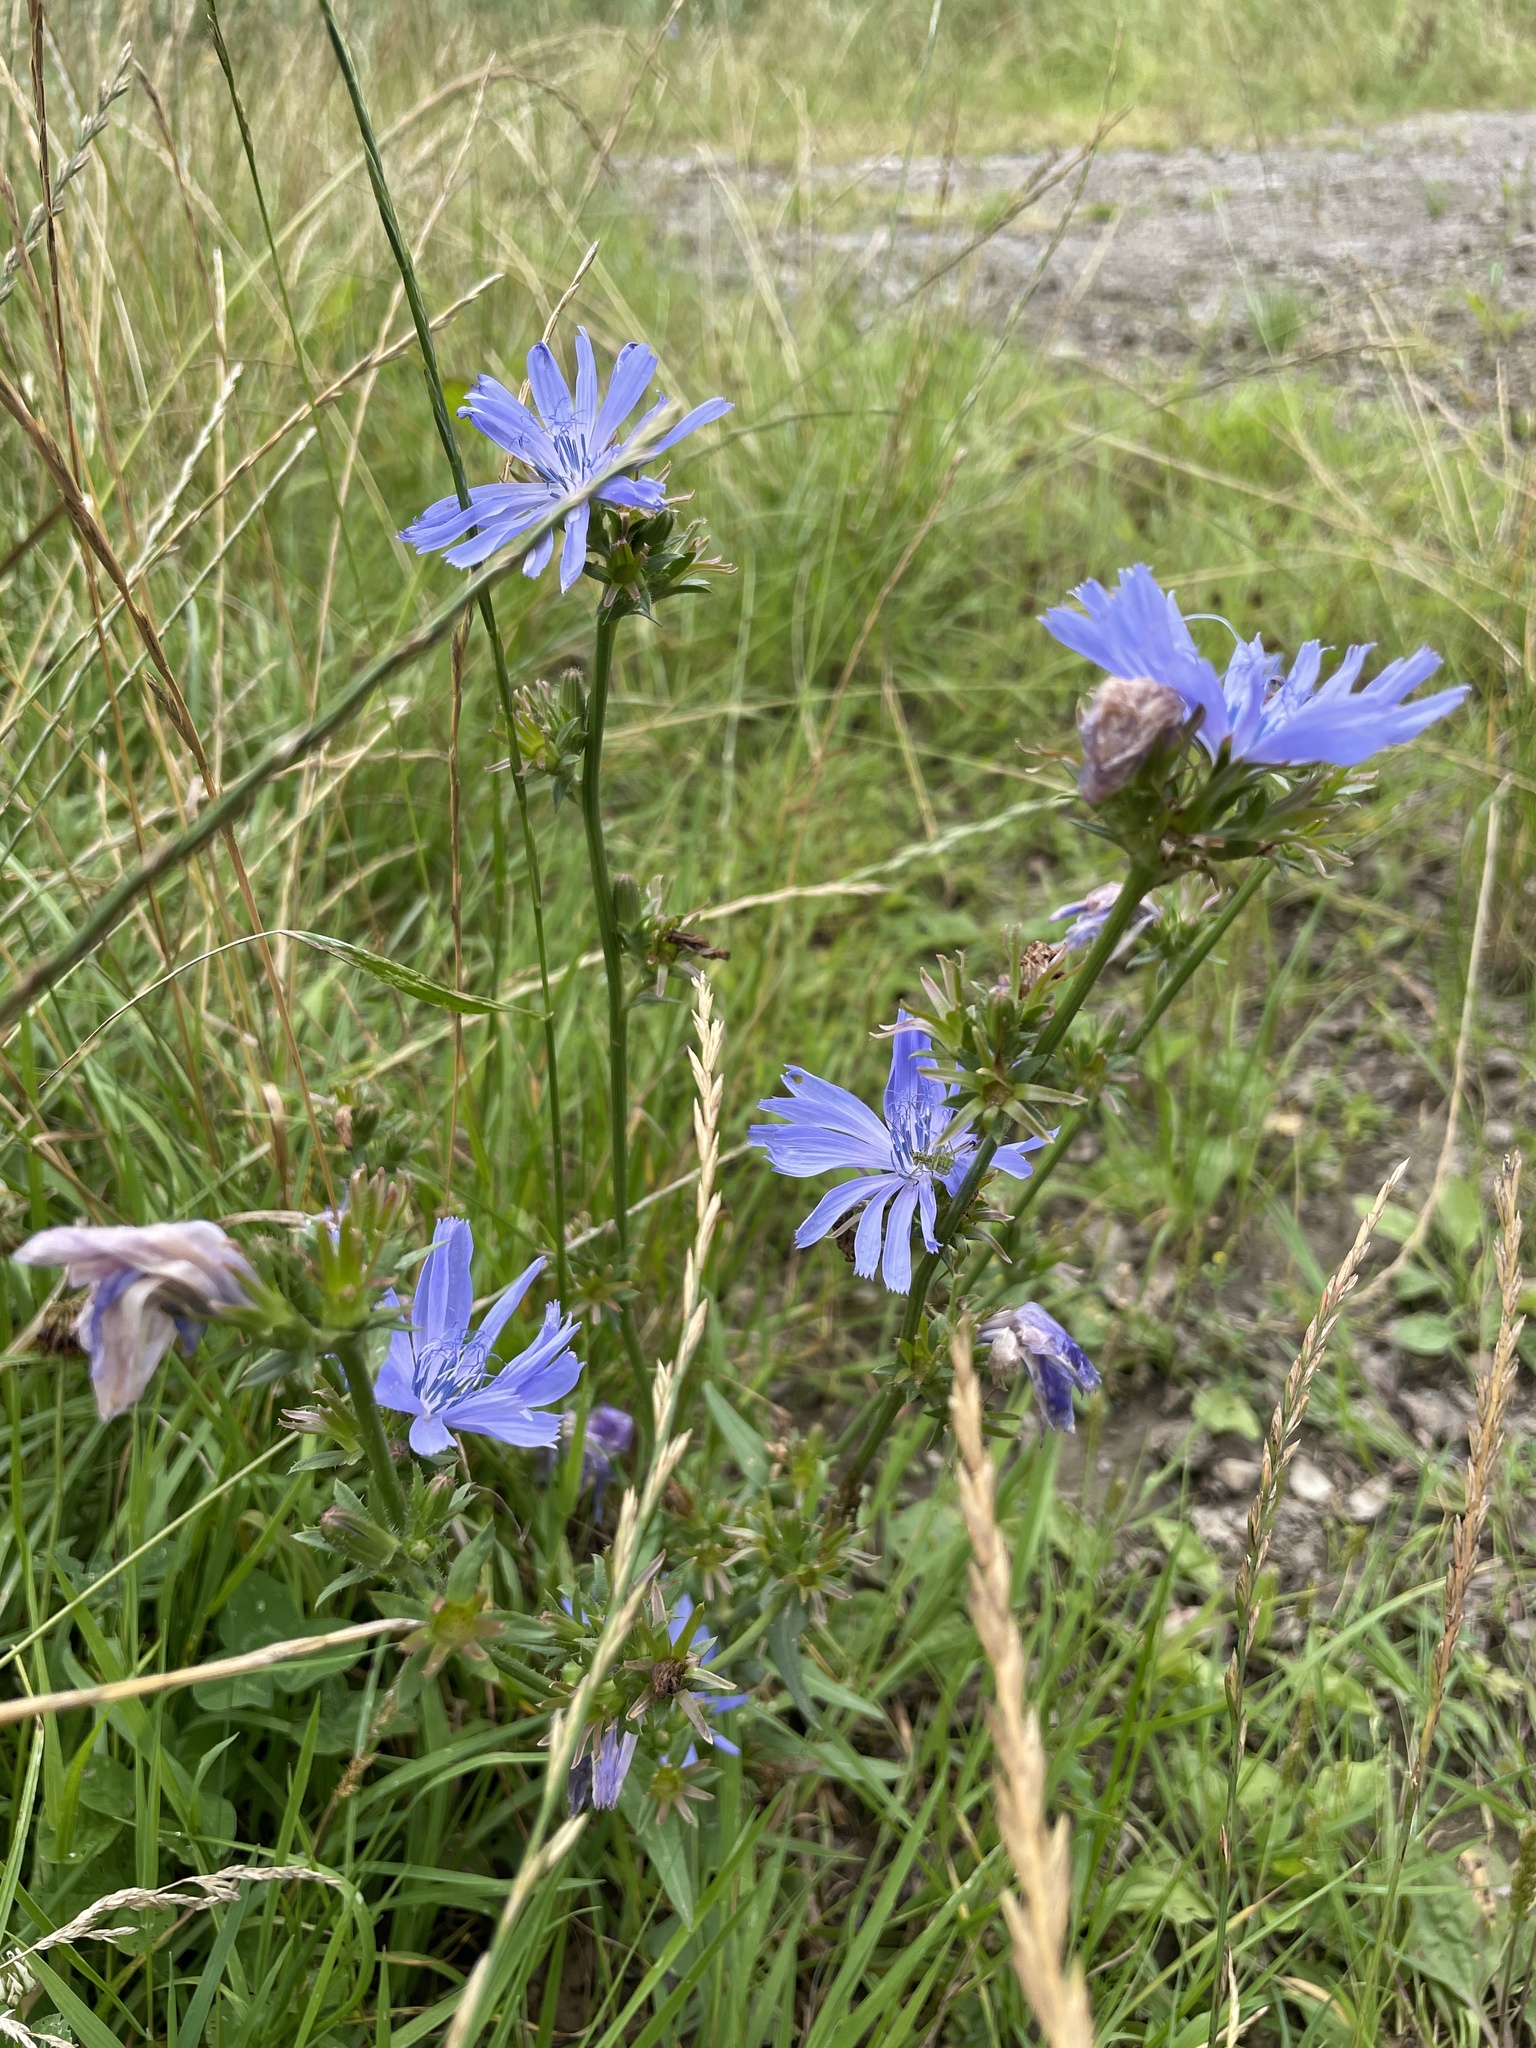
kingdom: Plantae
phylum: Tracheophyta
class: Magnoliopsida
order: Asterales
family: Asteraceae
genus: Cichorium
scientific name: Cichorium intybus
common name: Chicory
